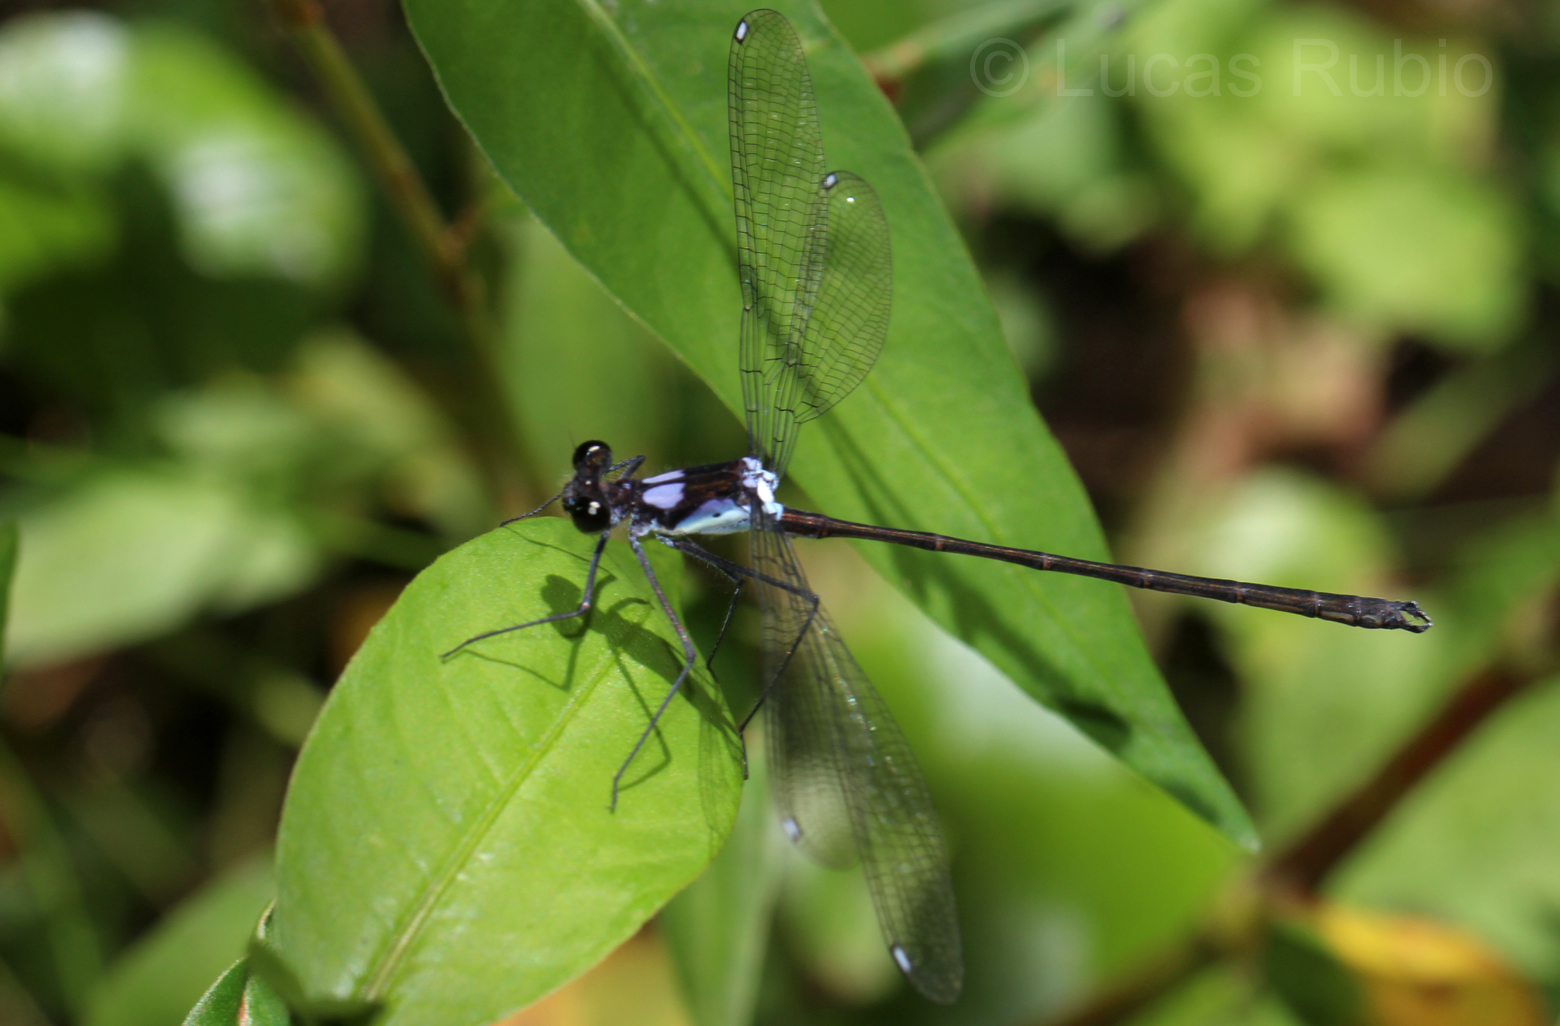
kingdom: Animalia
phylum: Arthropoda
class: Insecta
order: Odonata
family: Megapodagrionidae
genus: Teinopodagrion
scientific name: Teinopodagrion meridionale
